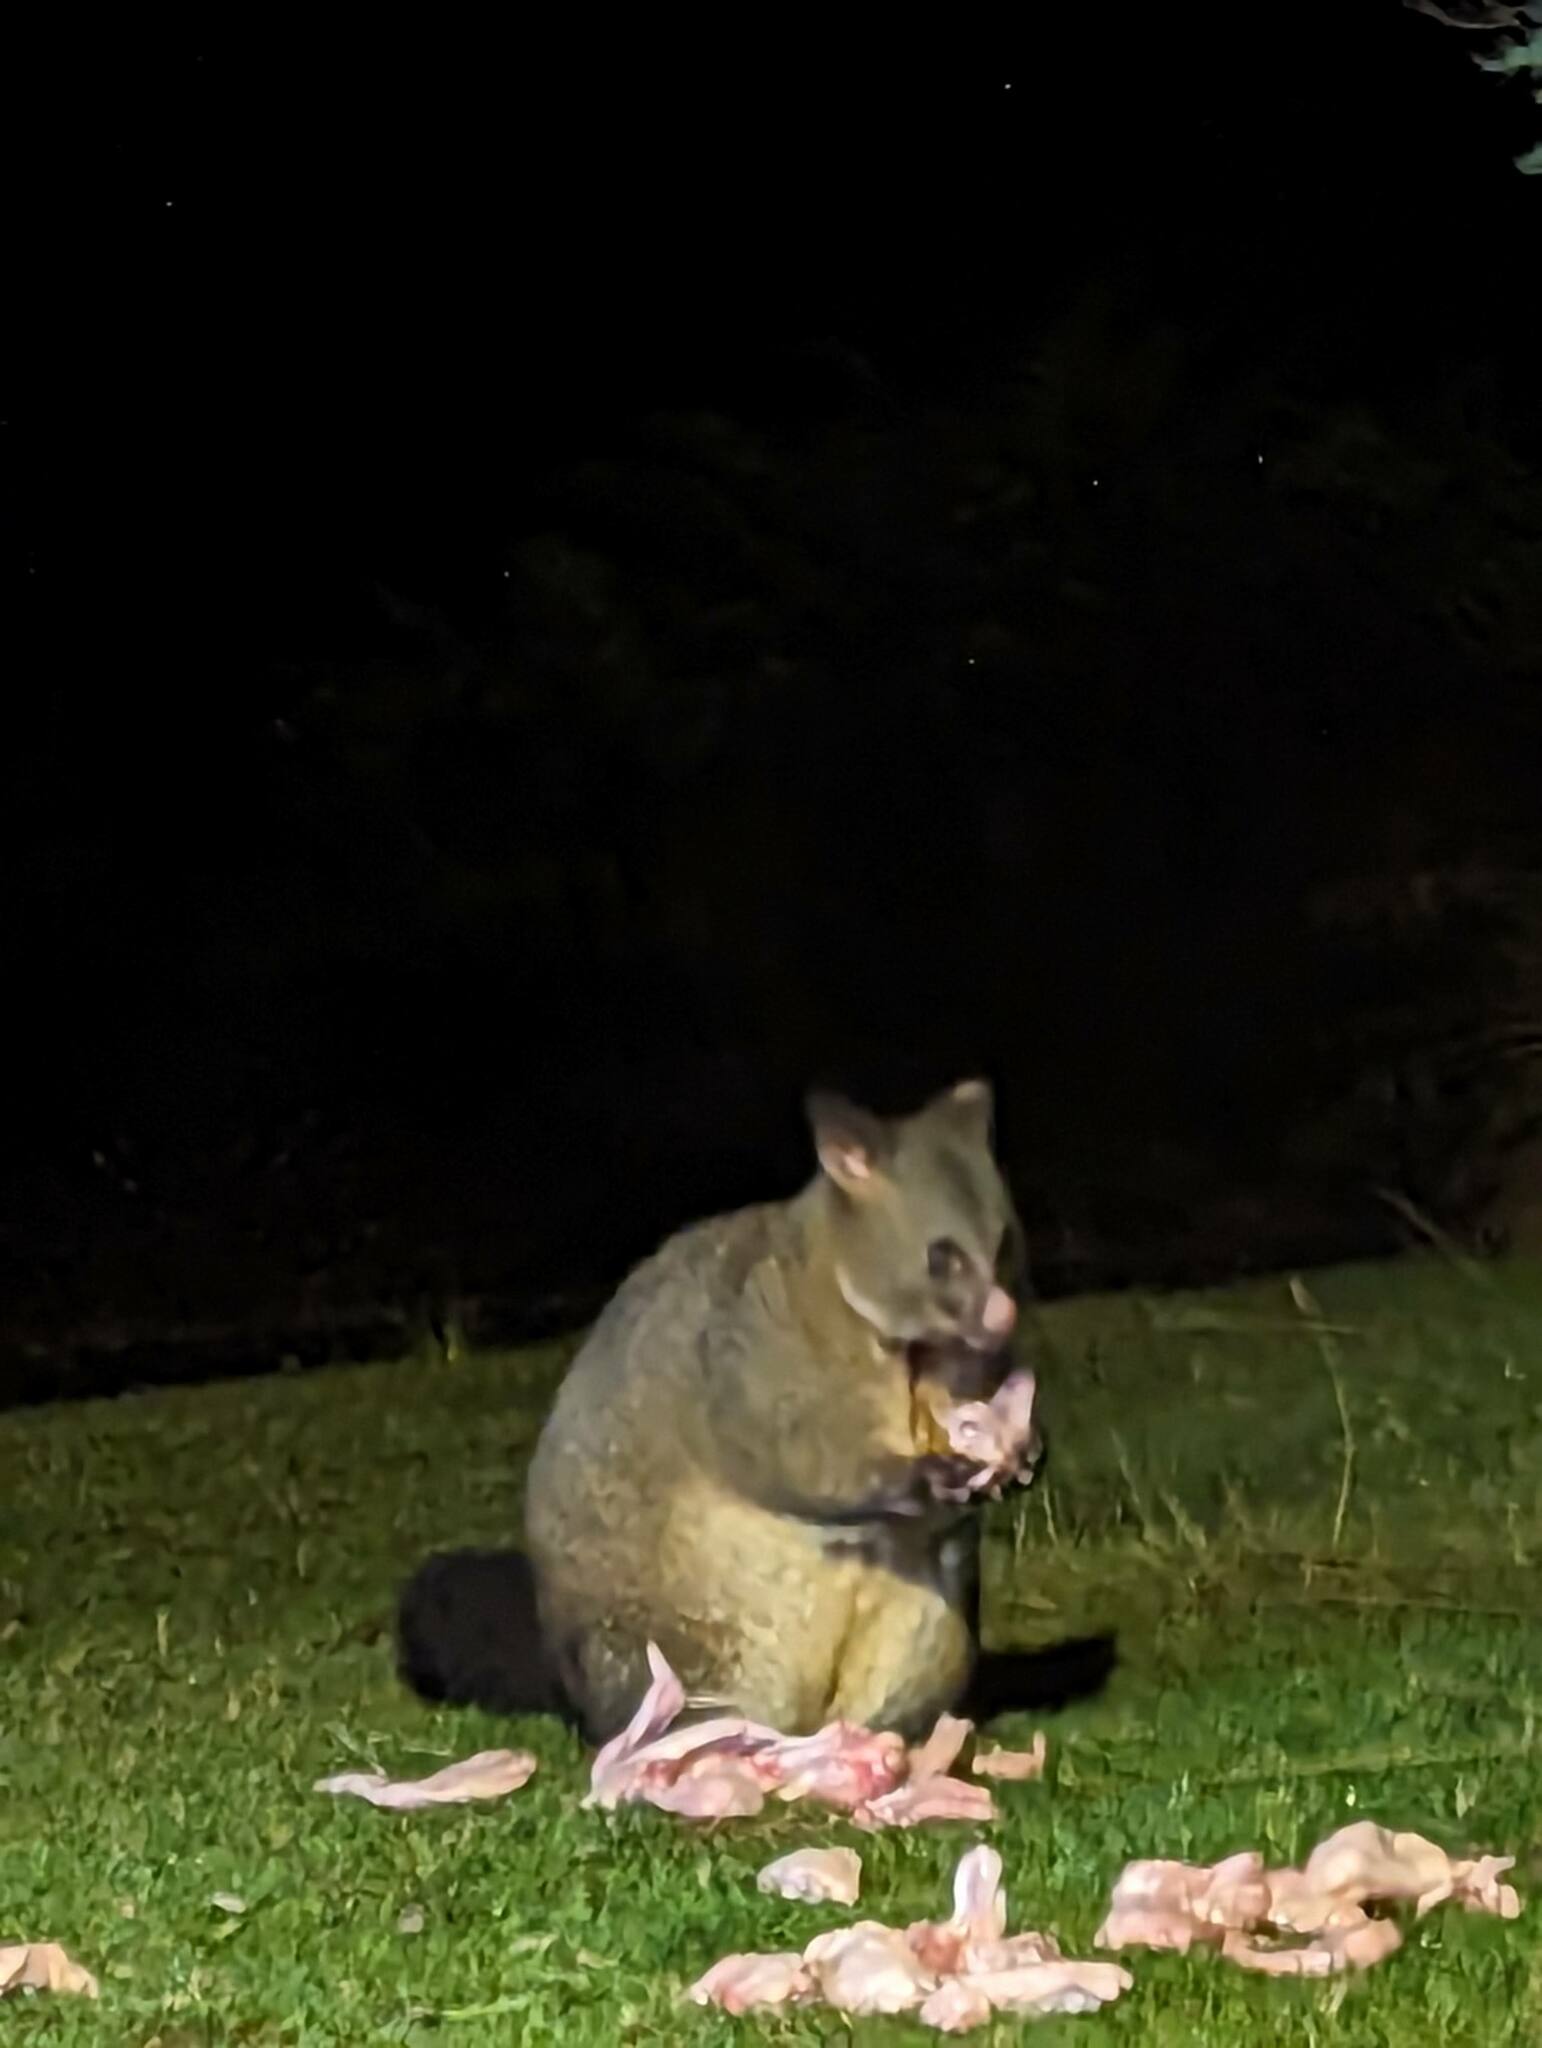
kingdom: Animalia
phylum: Chordata
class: Mammalia
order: Diprotodontia
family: Phalangeridae
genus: Trichosurus
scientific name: Trichosurus vulpecula
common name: Common brushtail
